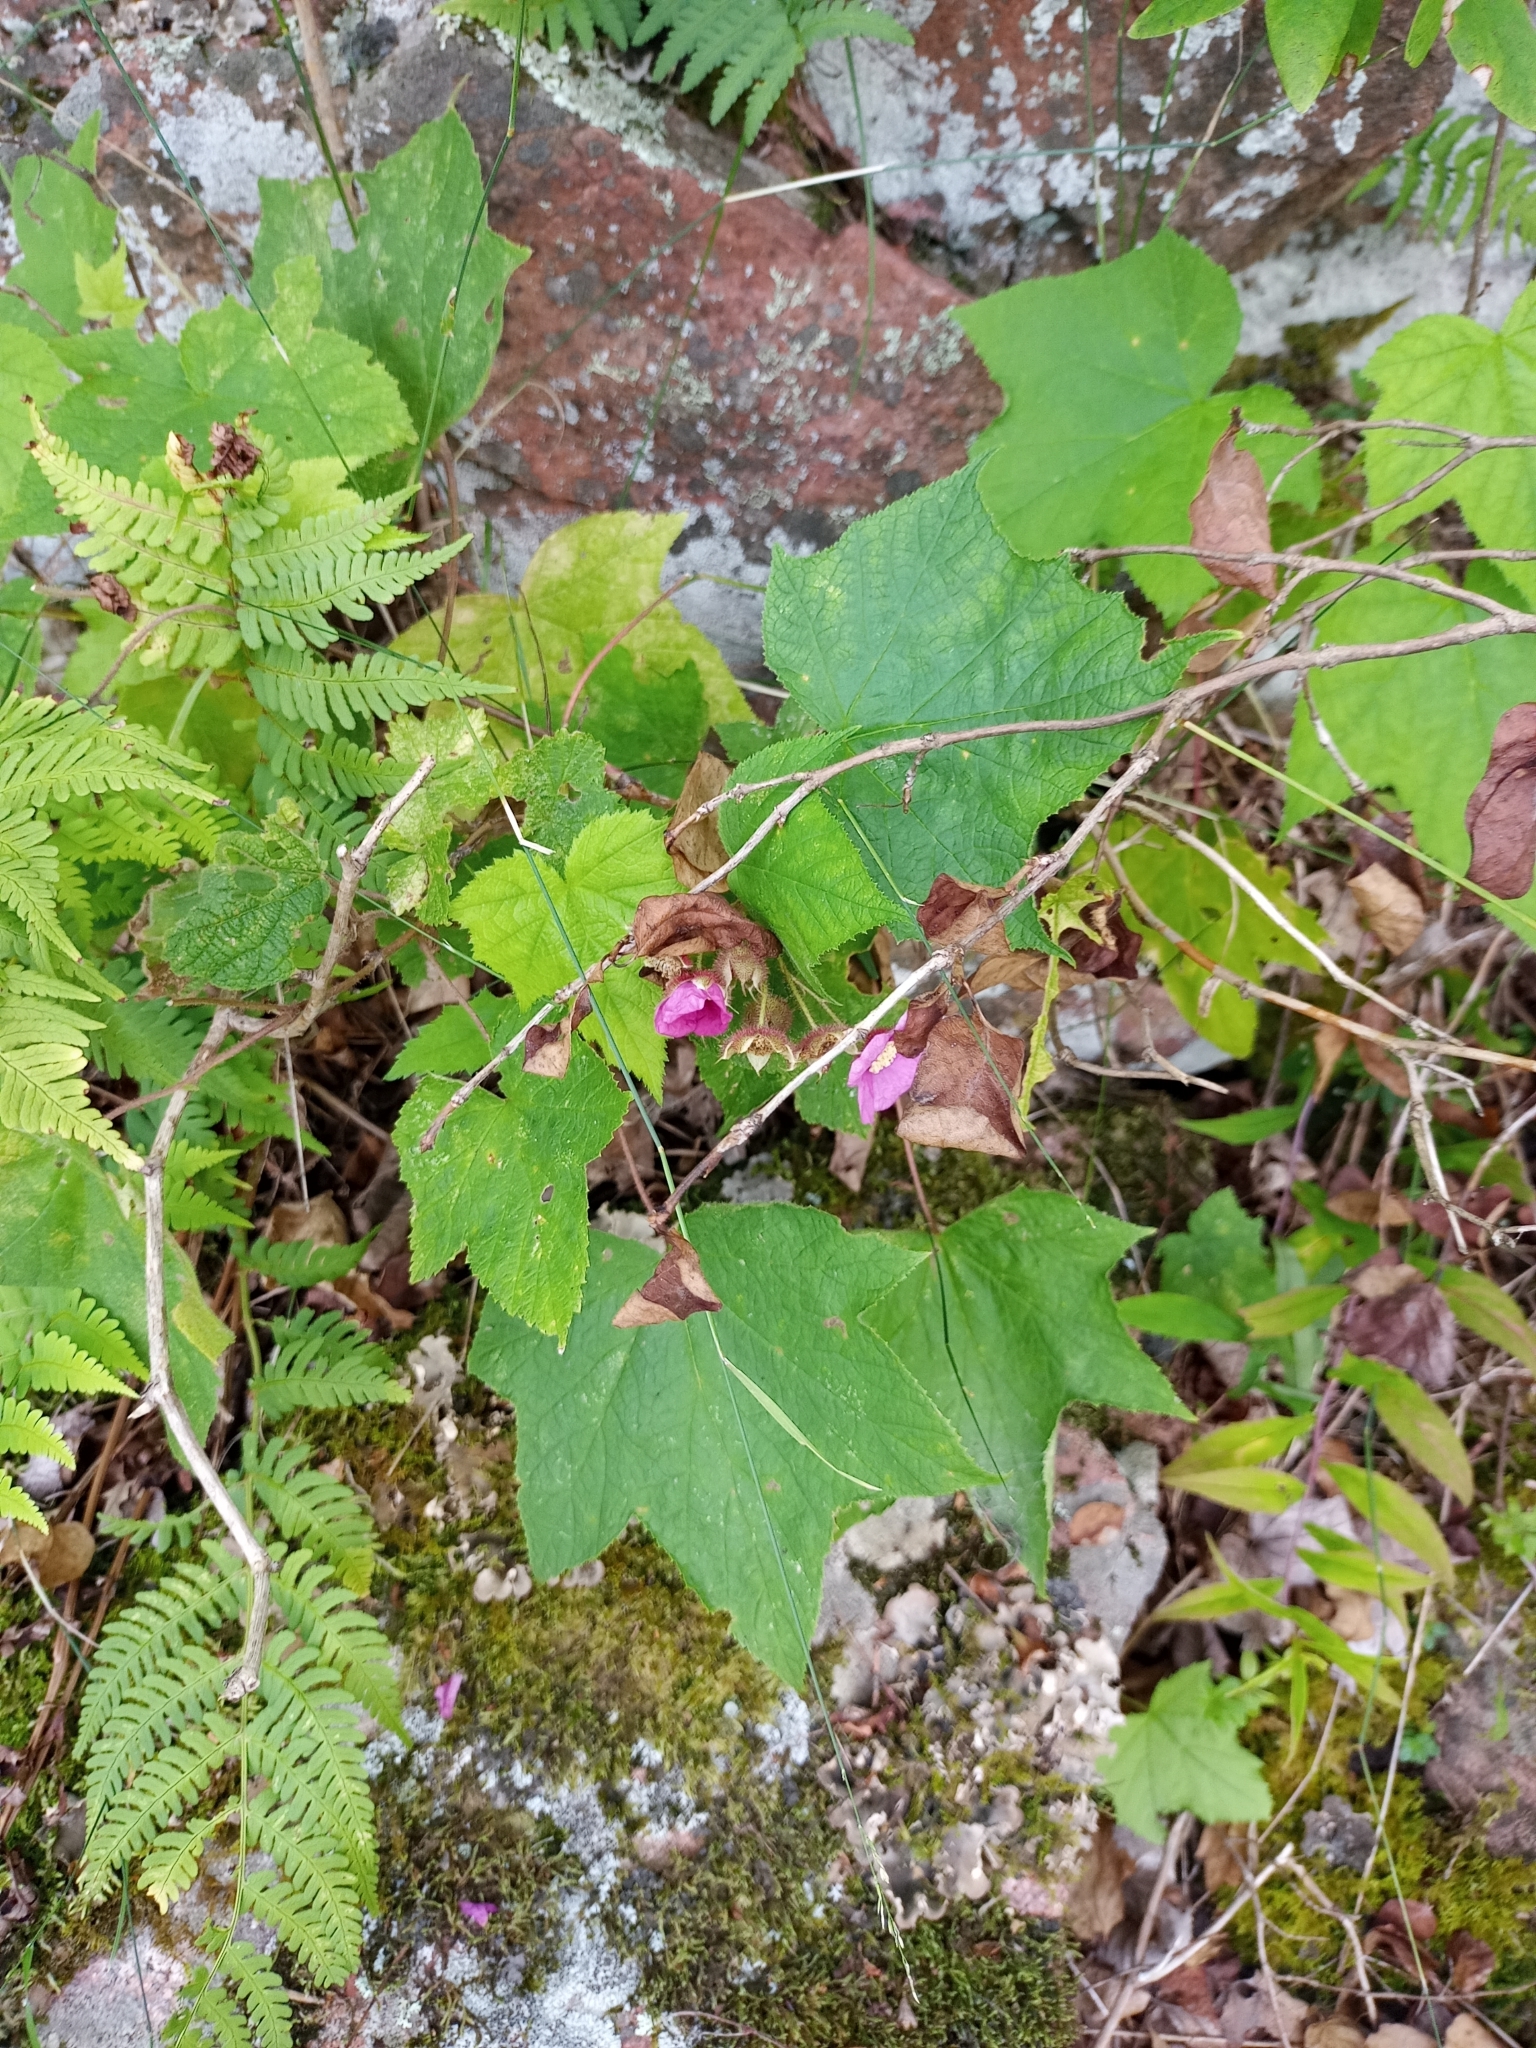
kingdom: Plantae
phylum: Tracheophyta
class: Magnoliopsida
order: Rosales
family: Rosaceae
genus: Rubus
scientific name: Rubus odoratus
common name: Purple-flowered raspberry
